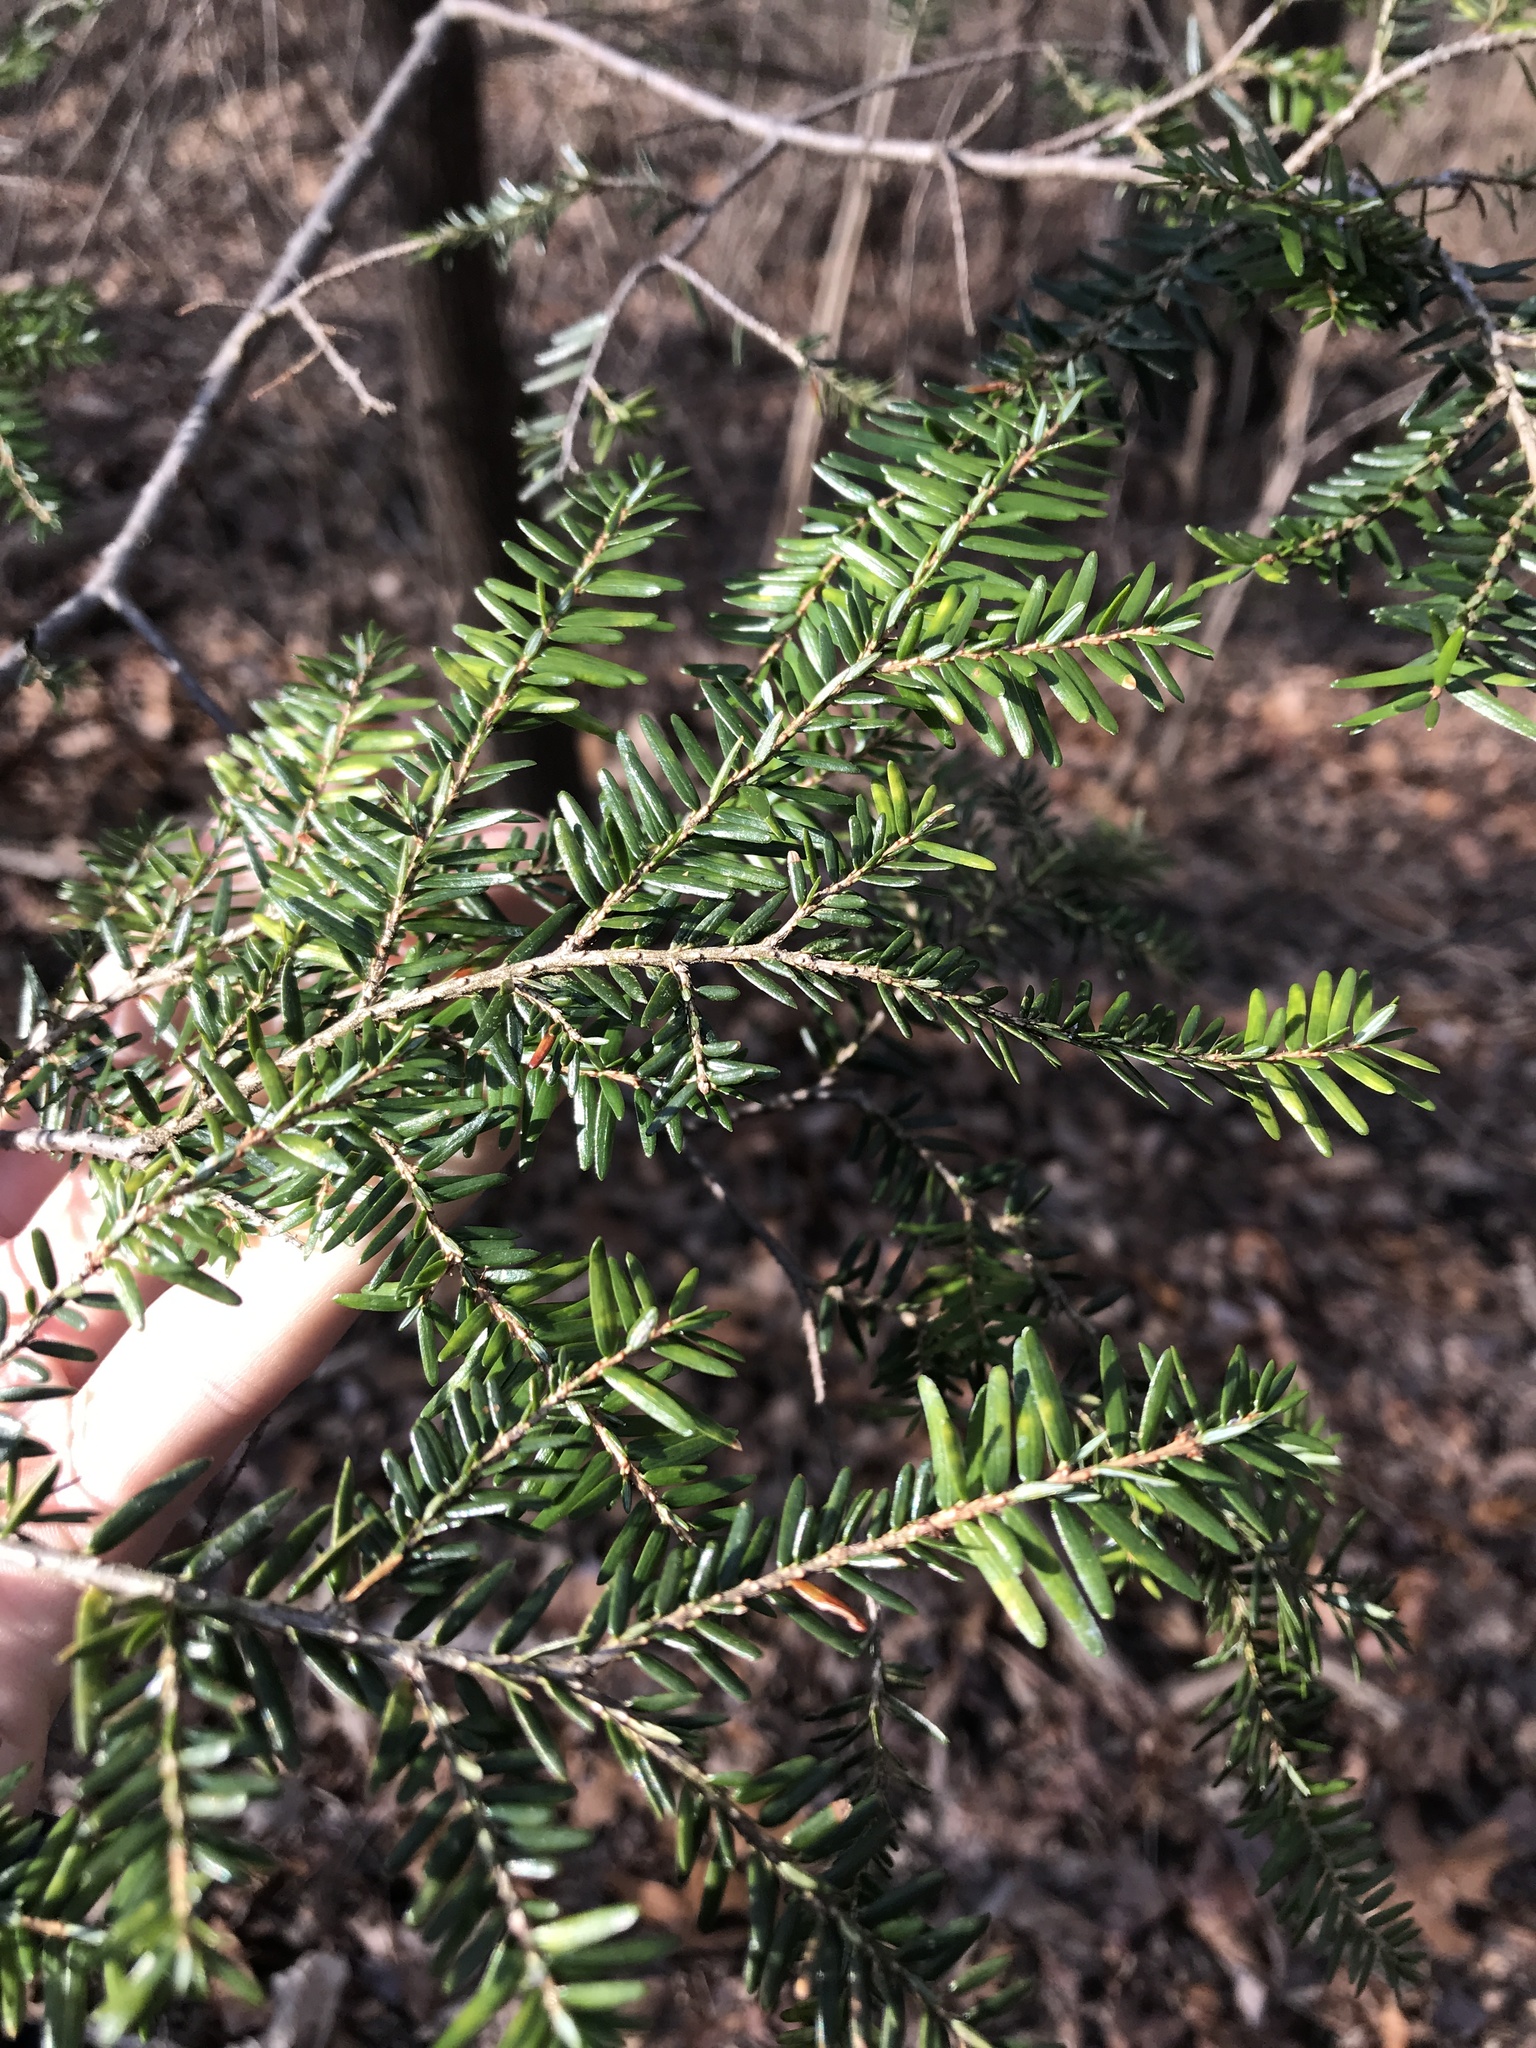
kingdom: Plantae
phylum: Tracheophyta
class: Pinopsida
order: Pinales
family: Pinaceae
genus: Tsuga
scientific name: Tsuga canadensis
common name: Eastern hemlock
